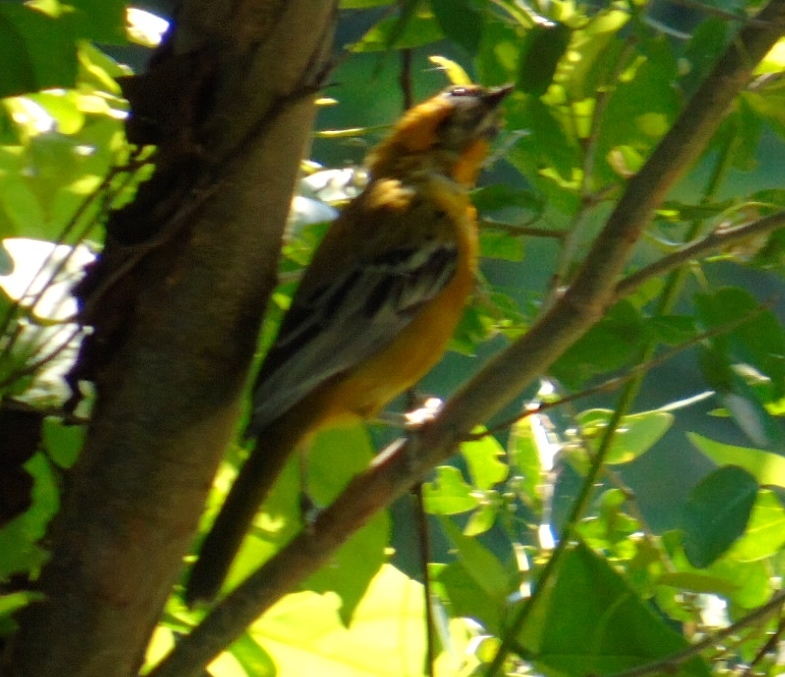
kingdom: Animalia
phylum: Chordata
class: Aves
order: Passeriformes
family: Icteridae
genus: Icterus
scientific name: Icterus pustulatus
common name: Streak-backed oriole
